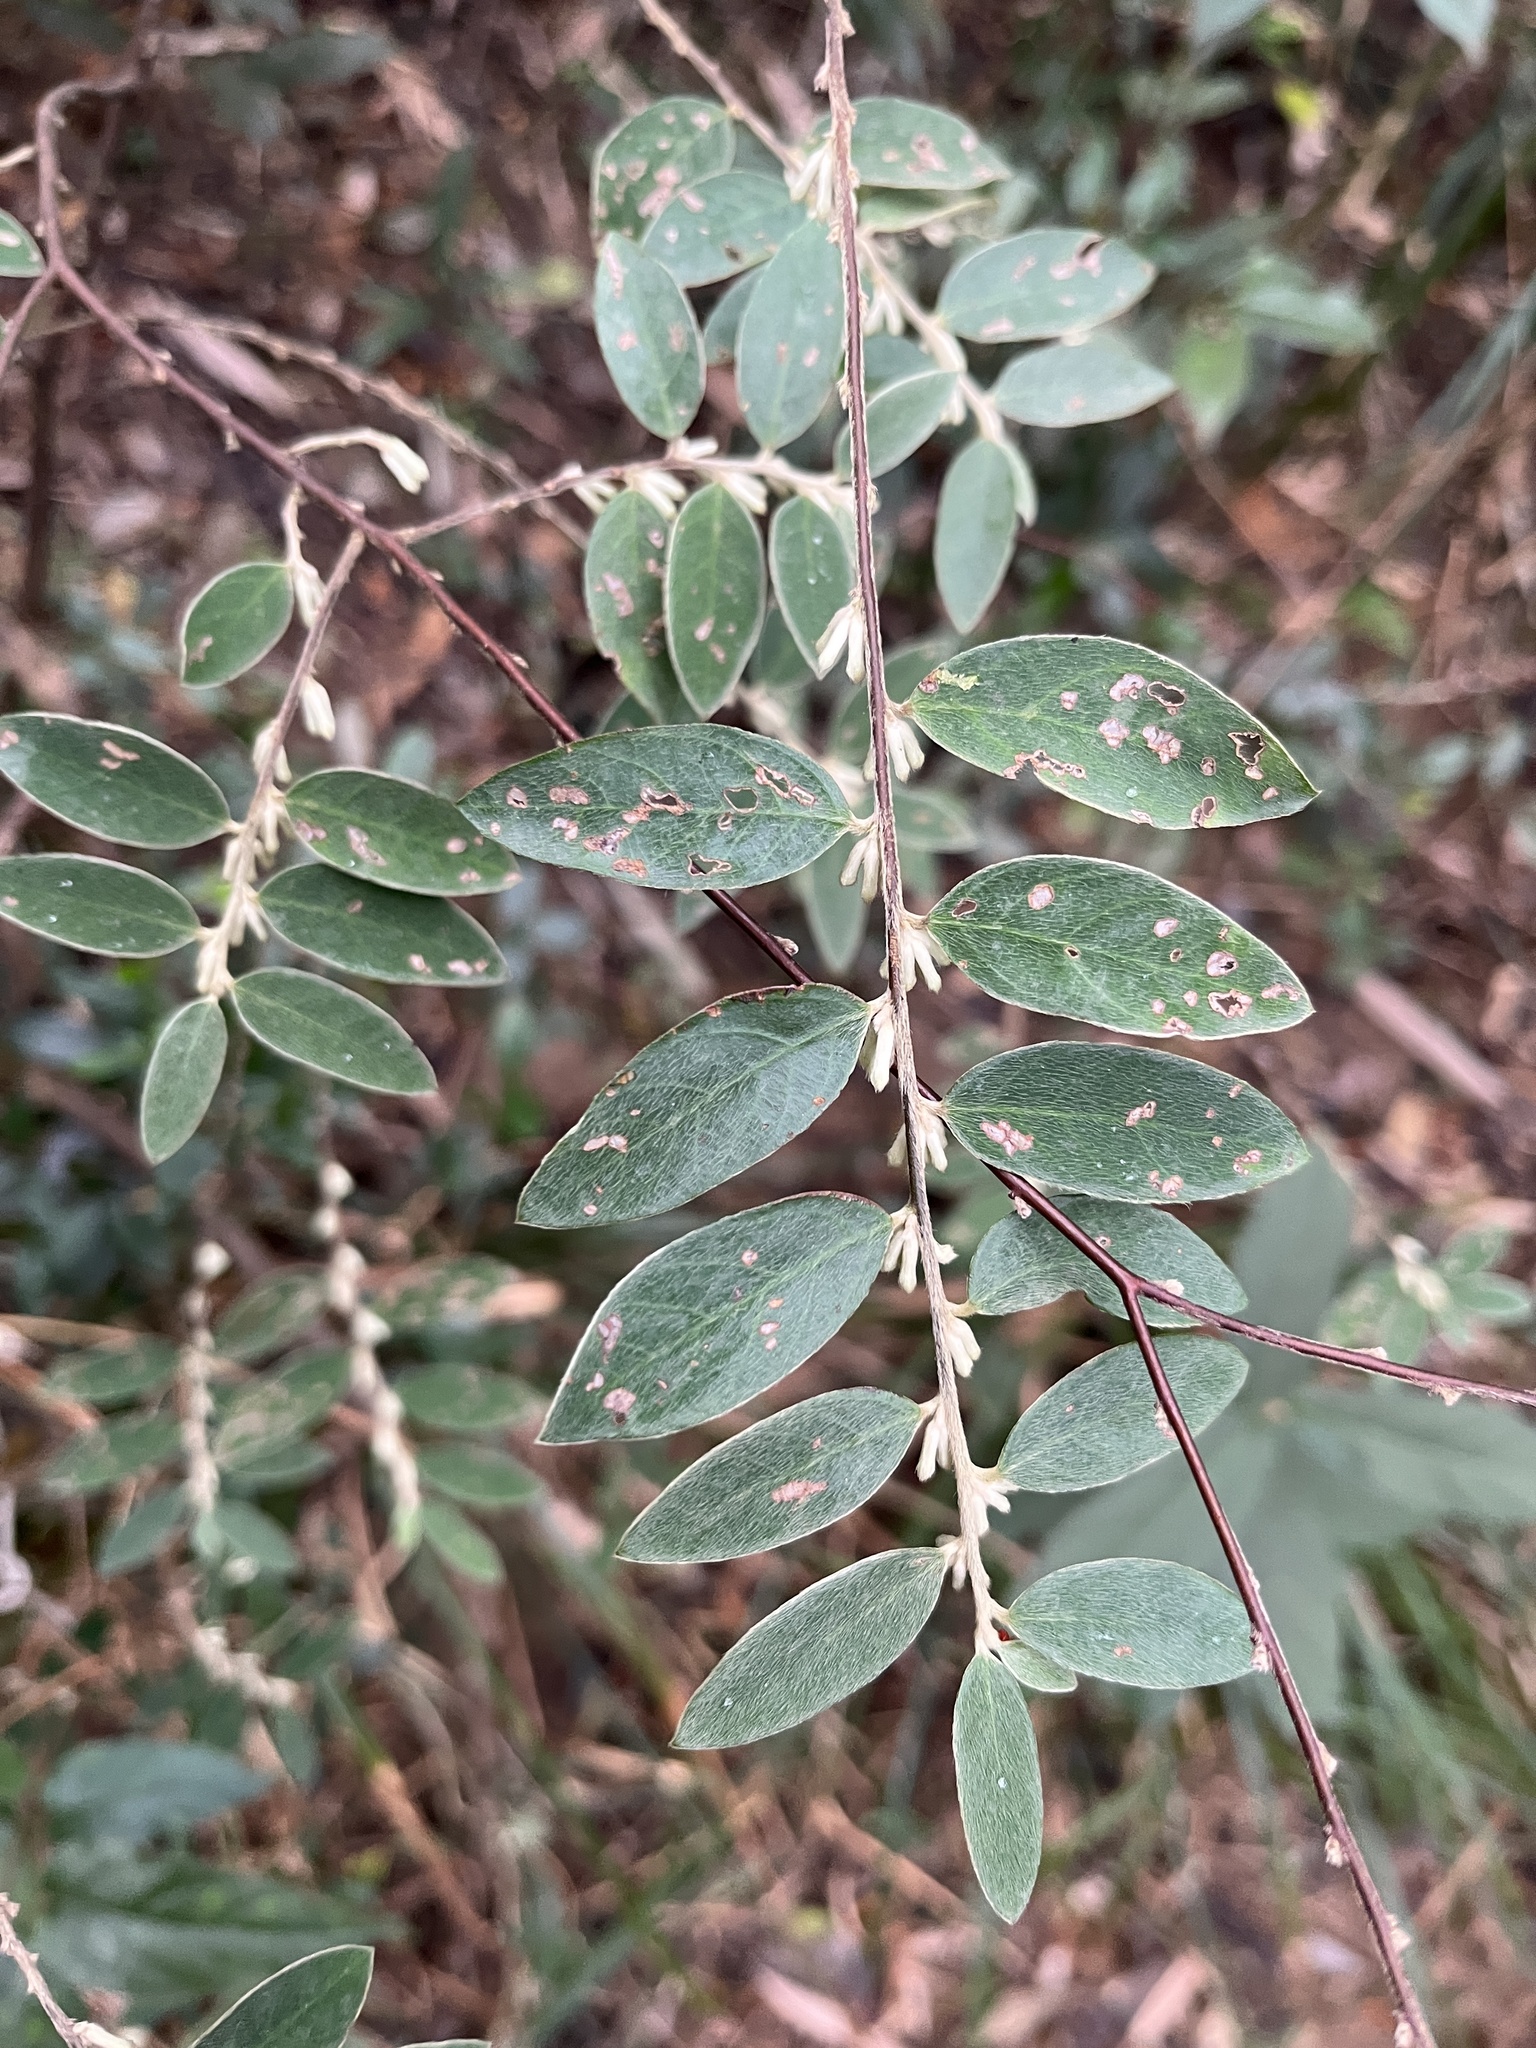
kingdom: Plantae
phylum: Tracheophyta
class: Magnoliopsida
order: Malvales
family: Thymelaeaceae
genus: Daphne
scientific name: Daphne championii
